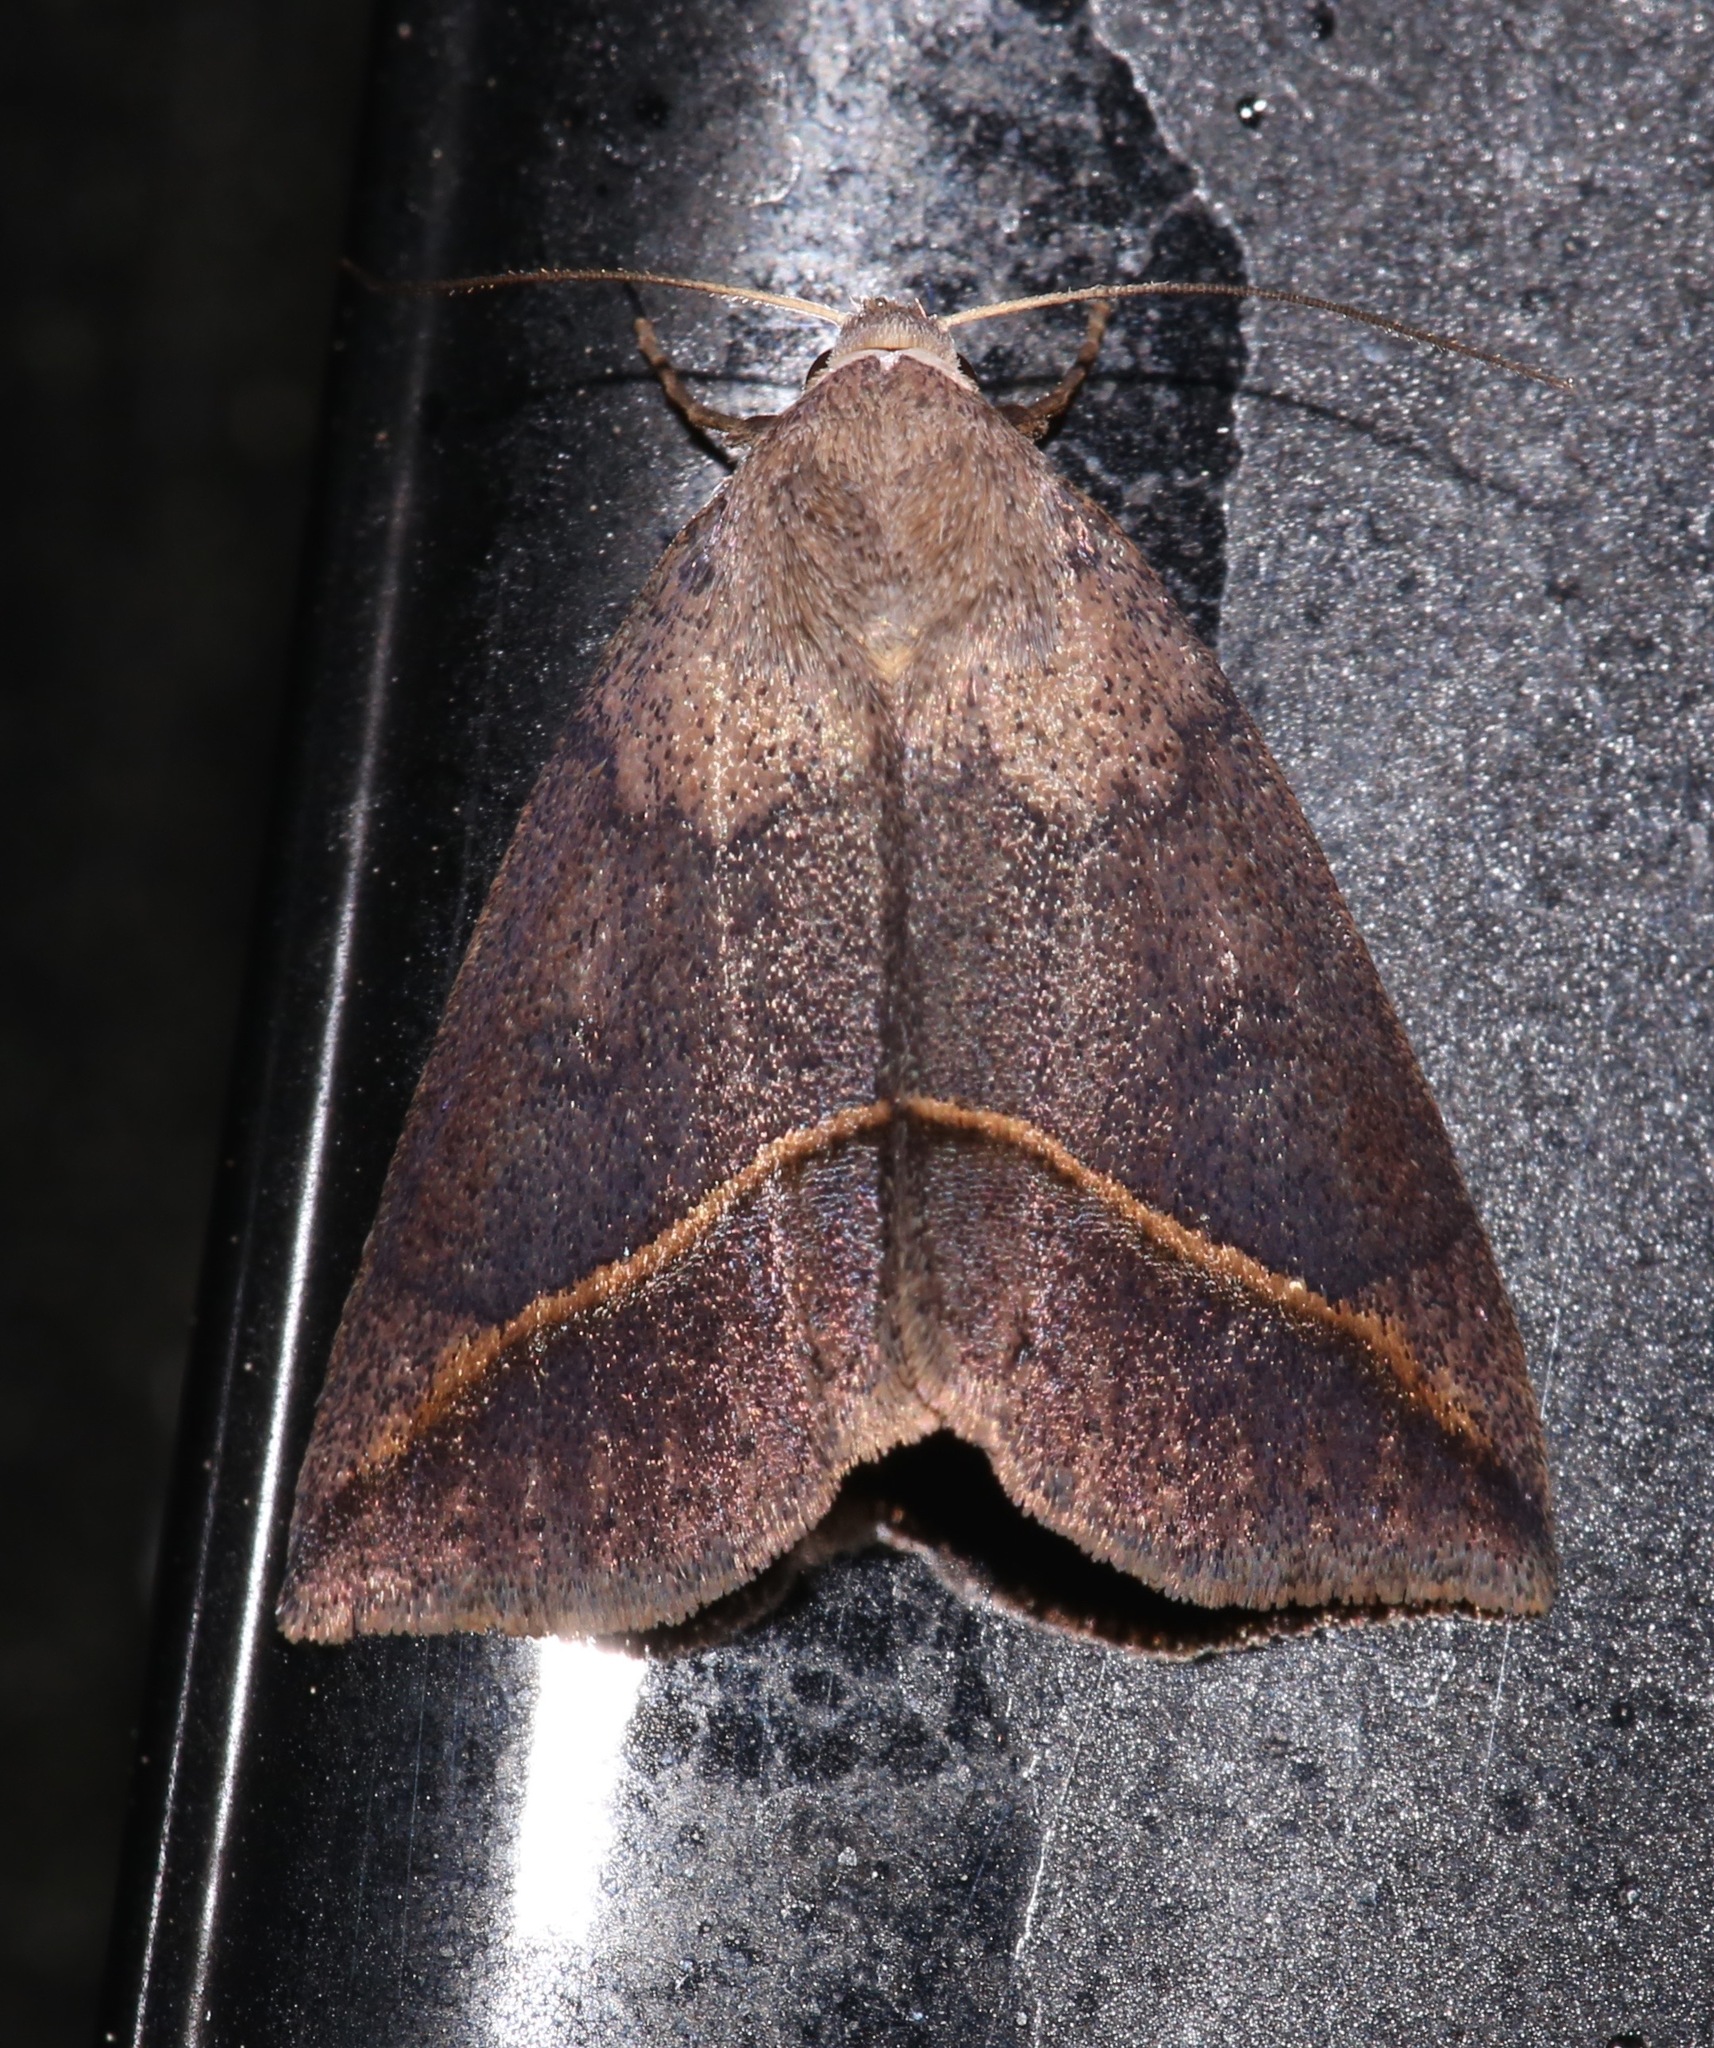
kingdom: Animalia
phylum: Arthropoda
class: Insecta
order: Lepidoptera
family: Erebidae
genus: Argyrostrotis
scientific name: Argyrostrotis flavistriaria
